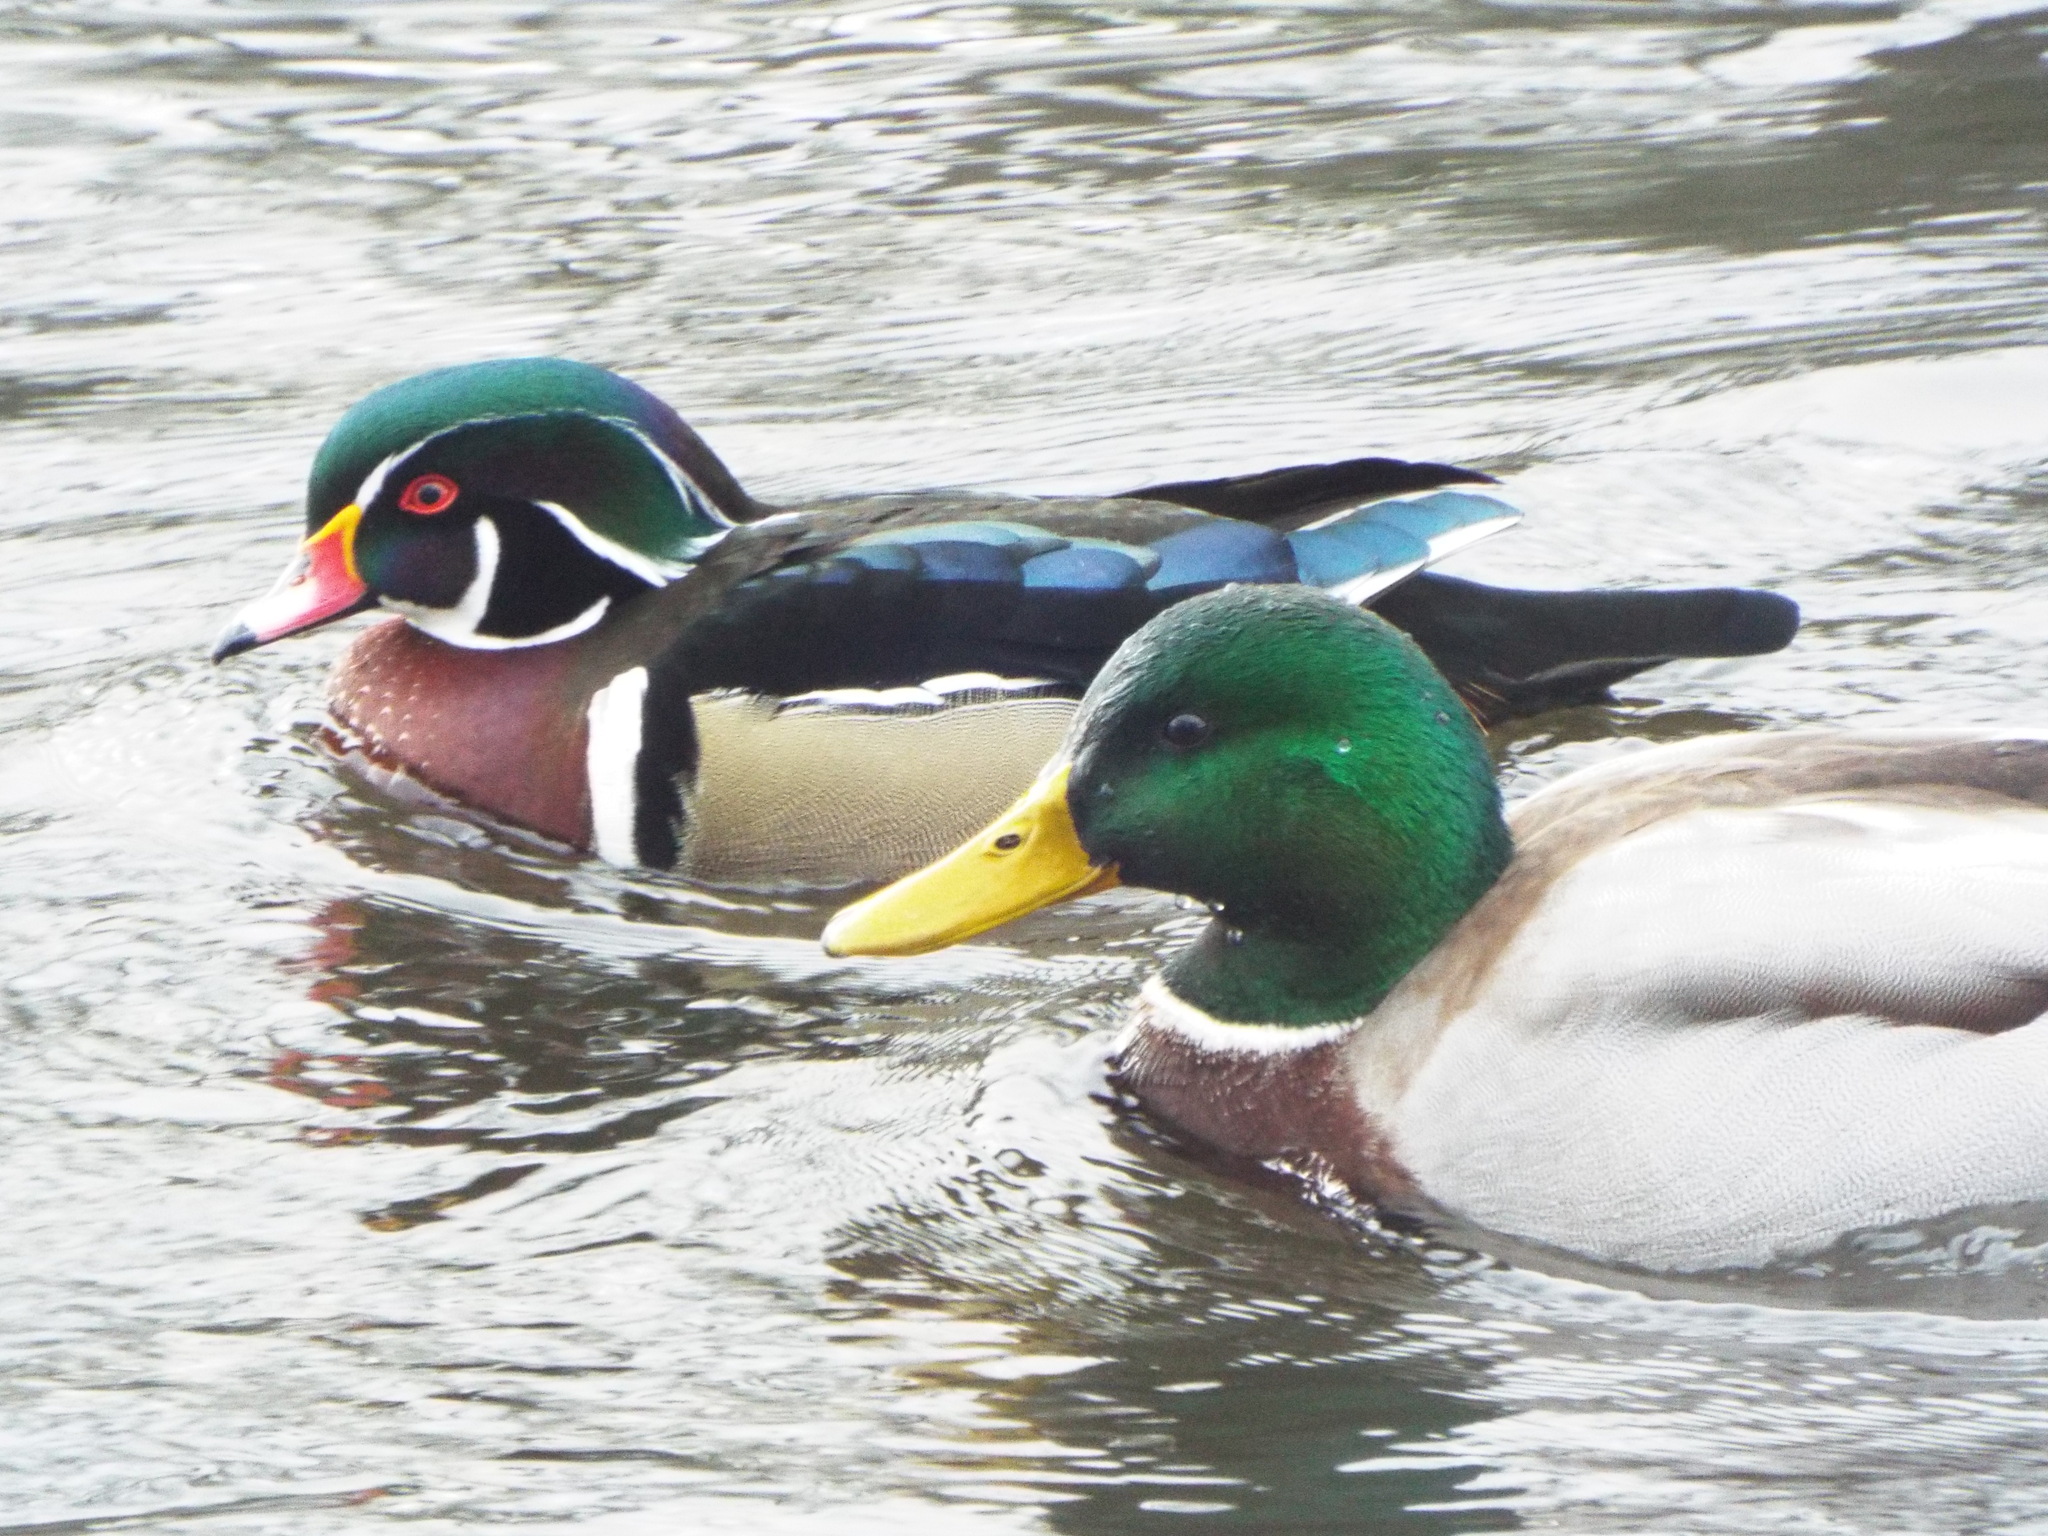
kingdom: Animalia
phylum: Chordata
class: Aves
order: Anseriformes
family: Anatidae
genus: Aix
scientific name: Aix sponsa
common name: Wood duck
